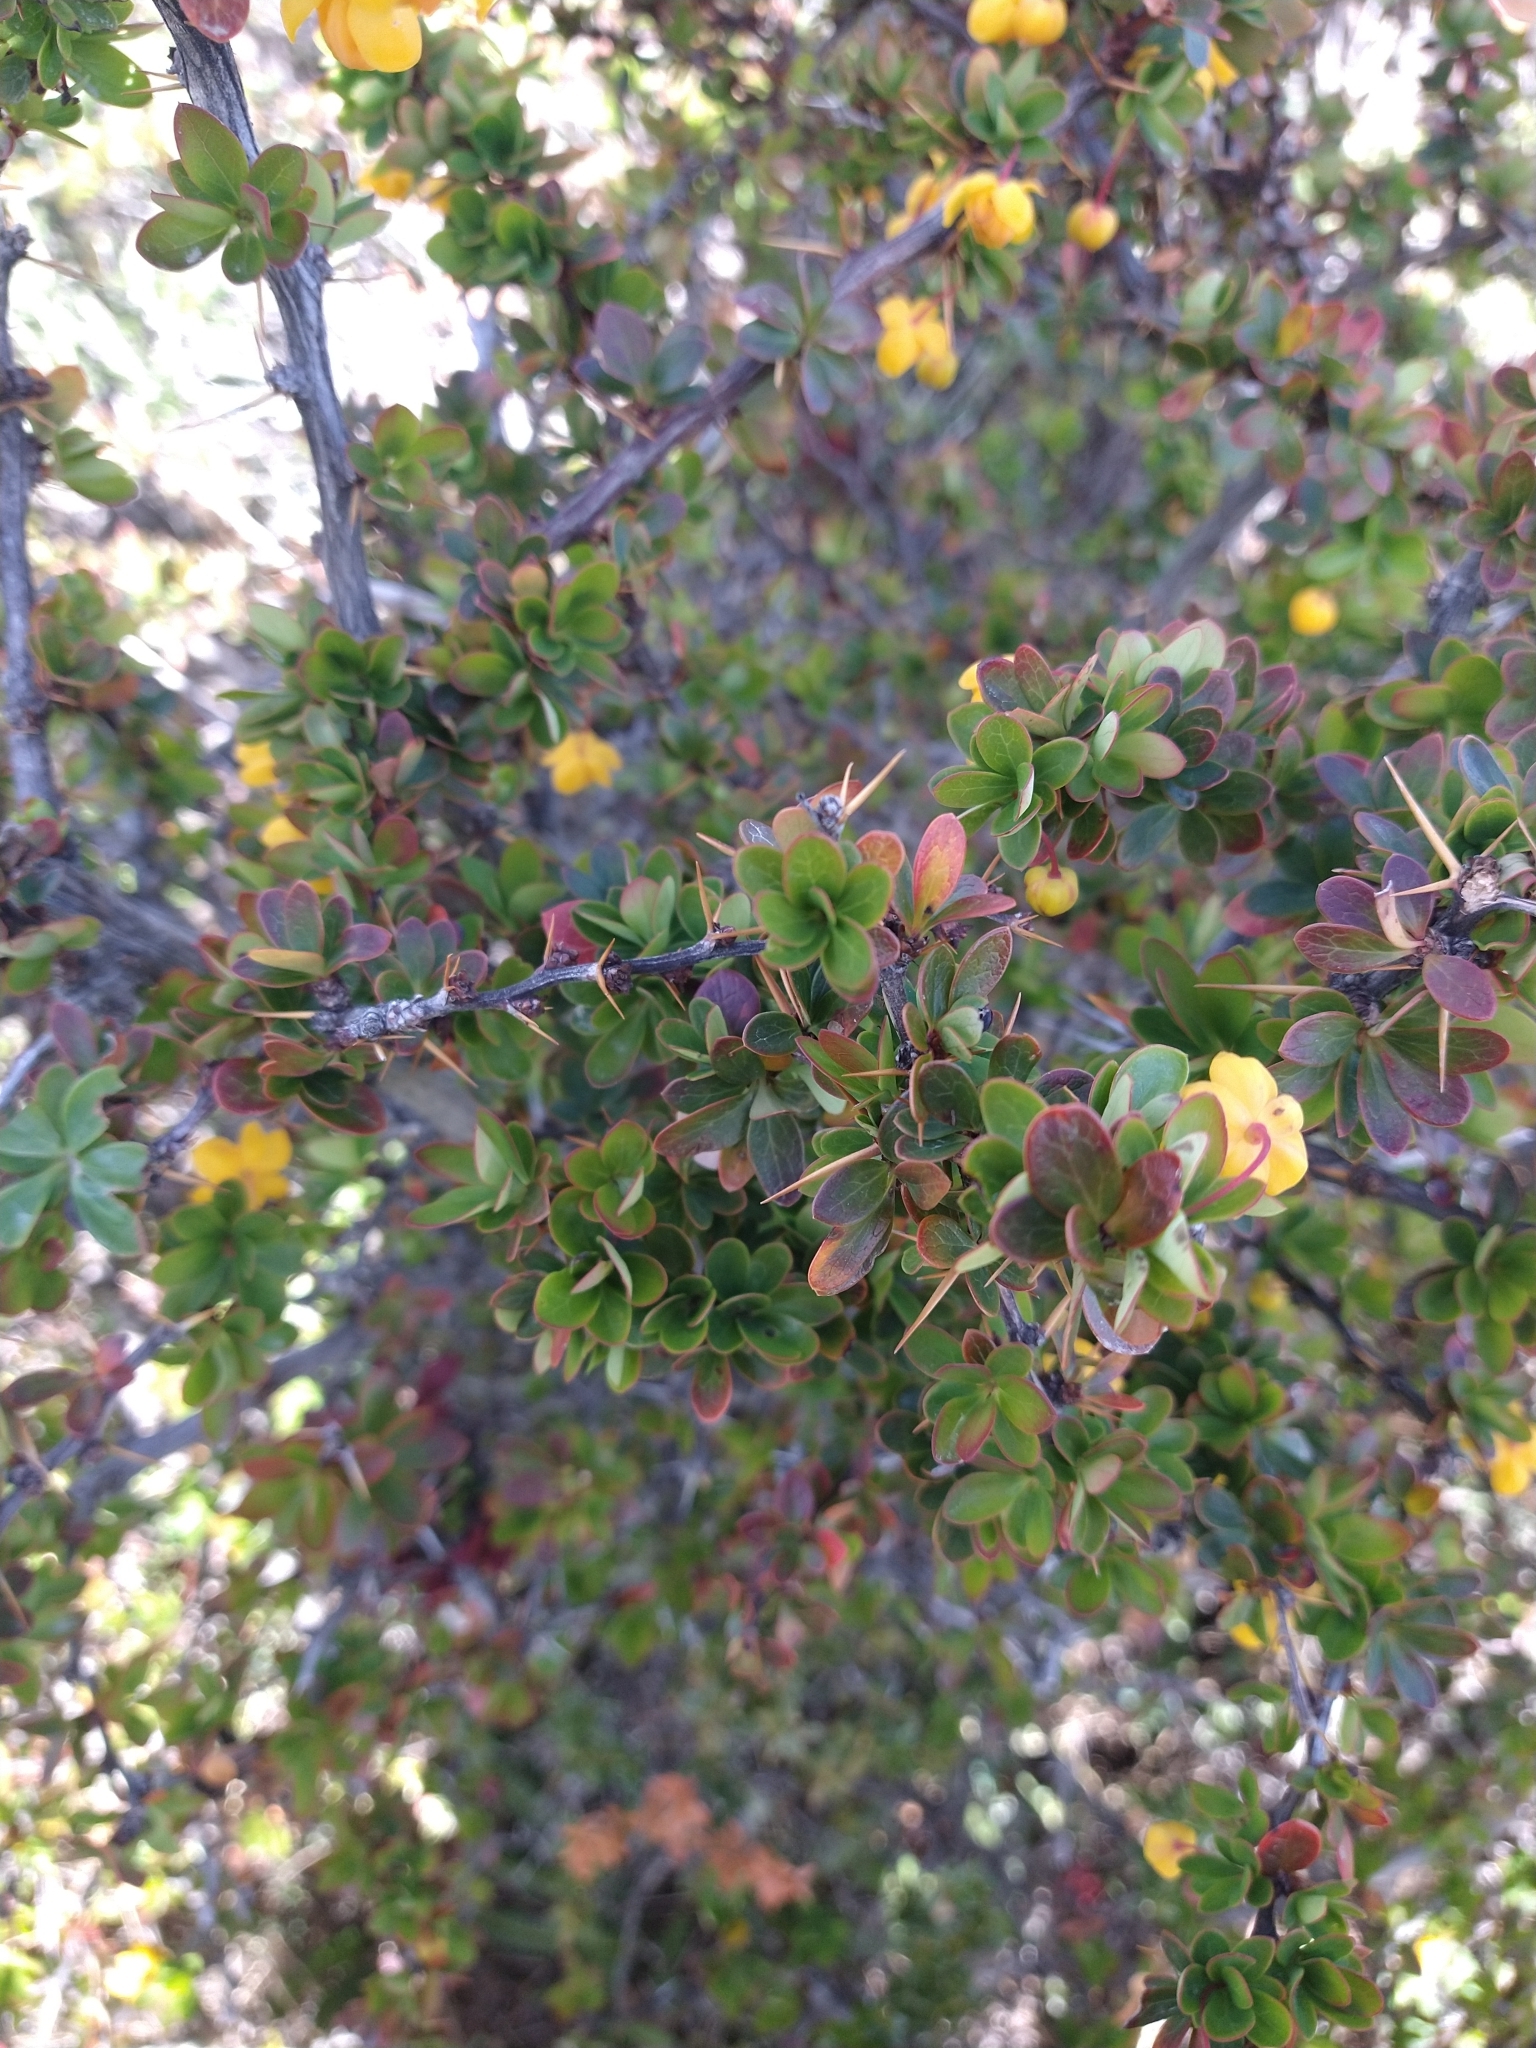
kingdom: Plantae
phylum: Tracheophyta
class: Magnoliopsida
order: Ranunculales
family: Berberidaceae
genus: Berberis
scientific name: Berberis microphylla
